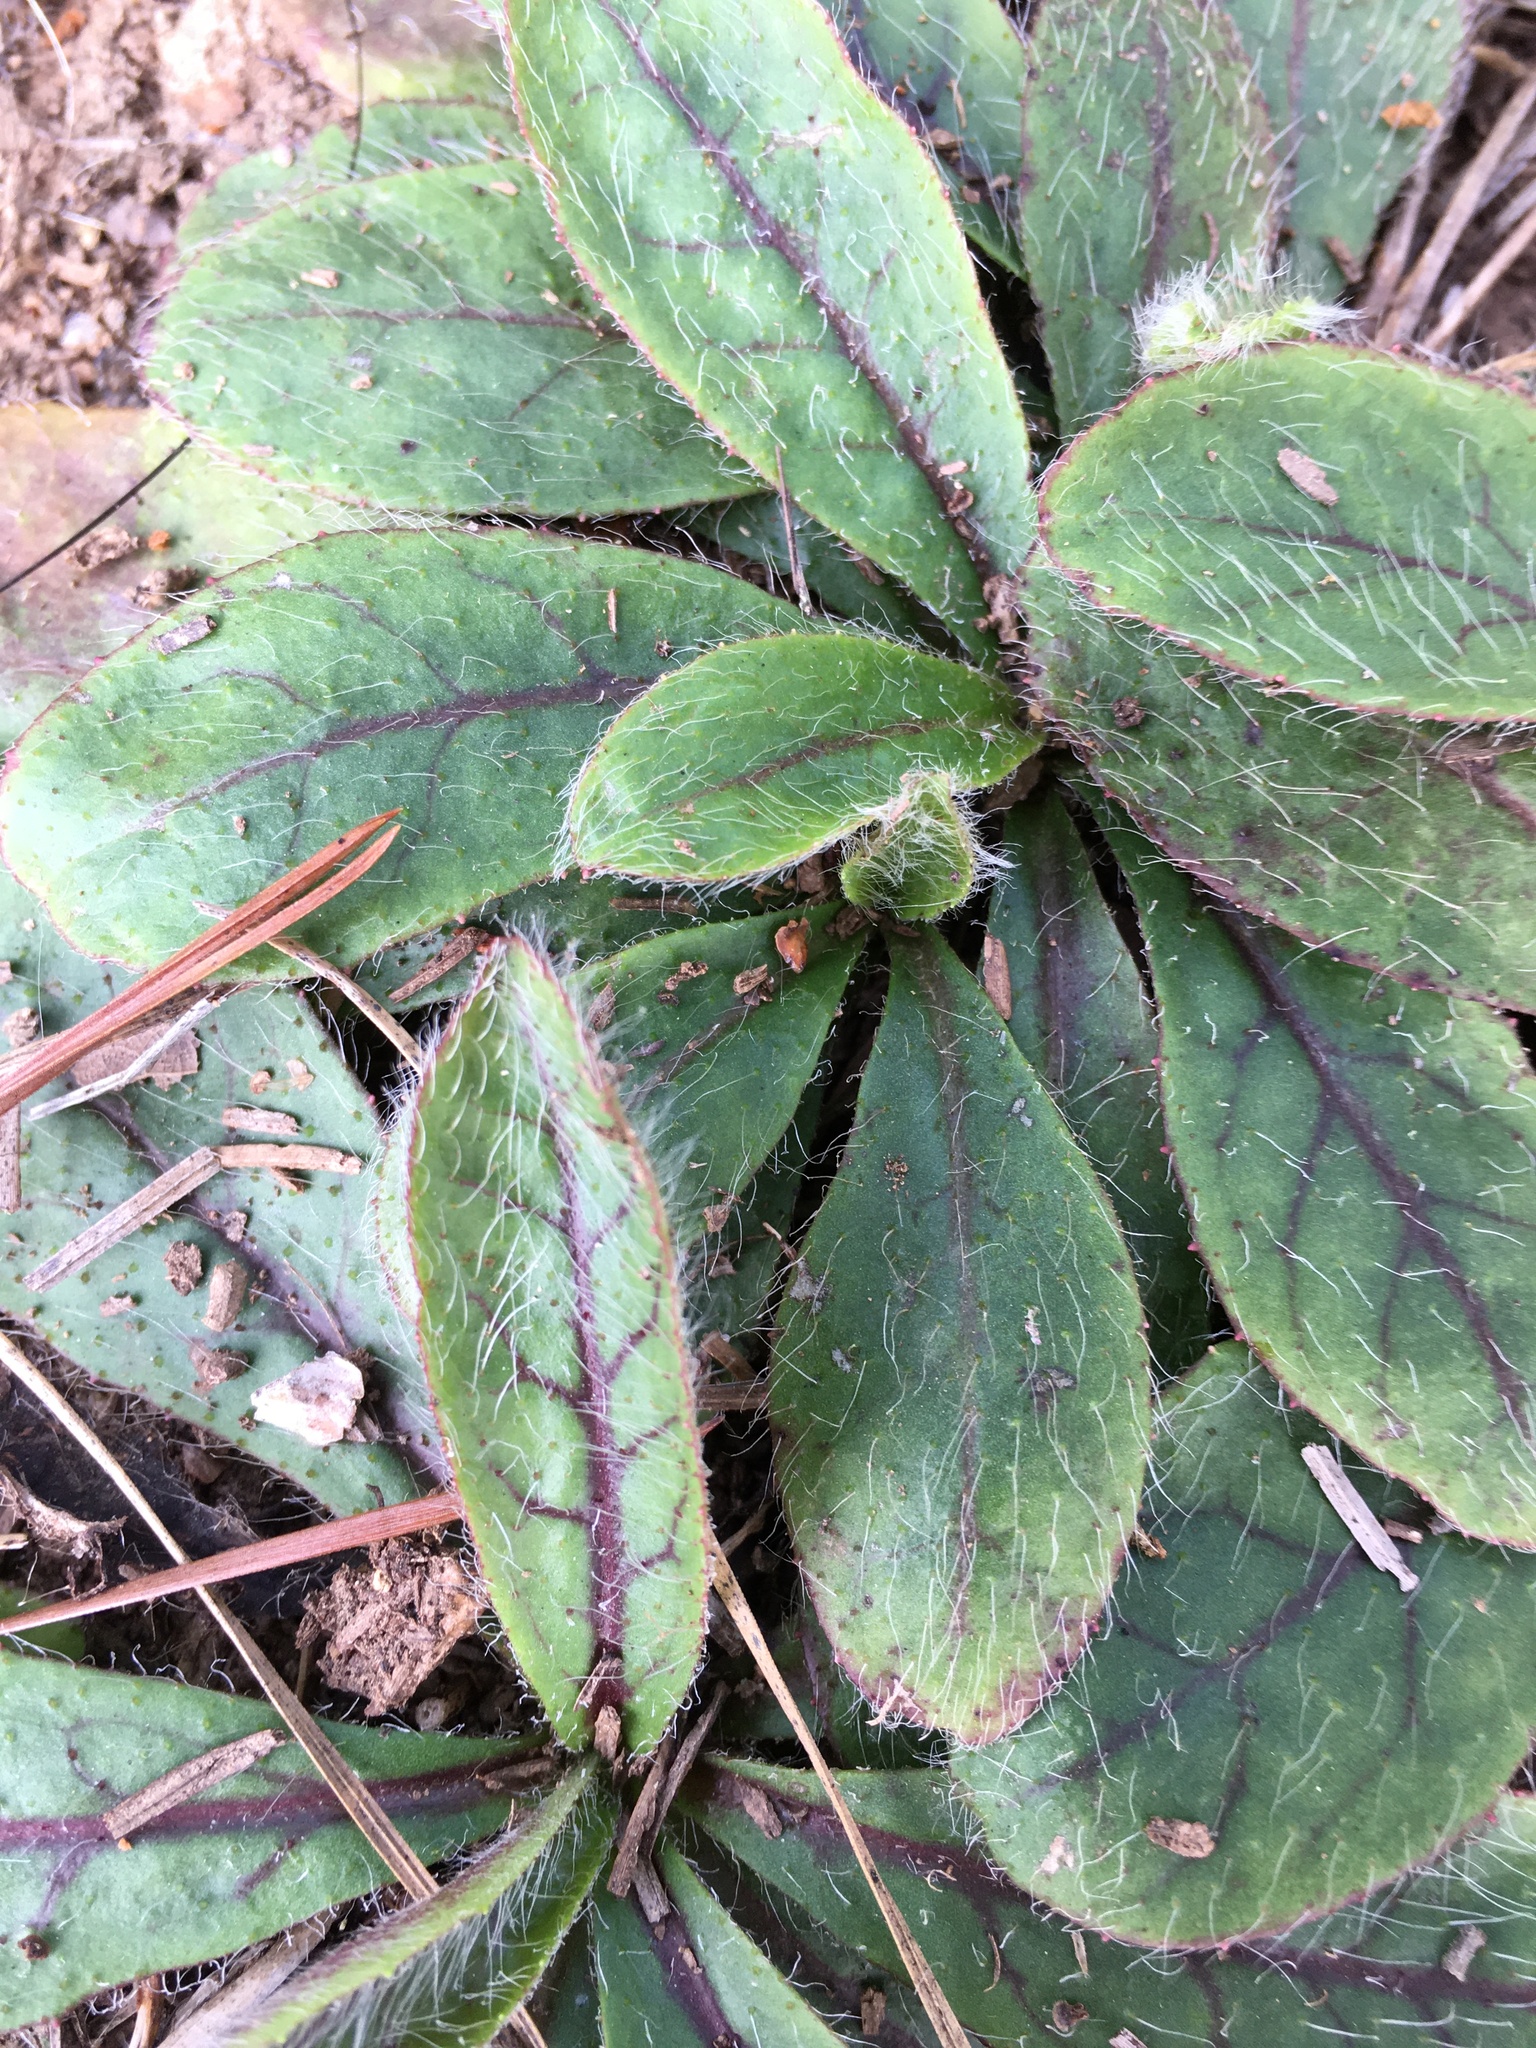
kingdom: Plantae
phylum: Tracheophyta
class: Magnoliopsida
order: Asterales
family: Asteraceae
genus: Hieracium
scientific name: Hieracium venosum
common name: Rattlesnake hawkweed
